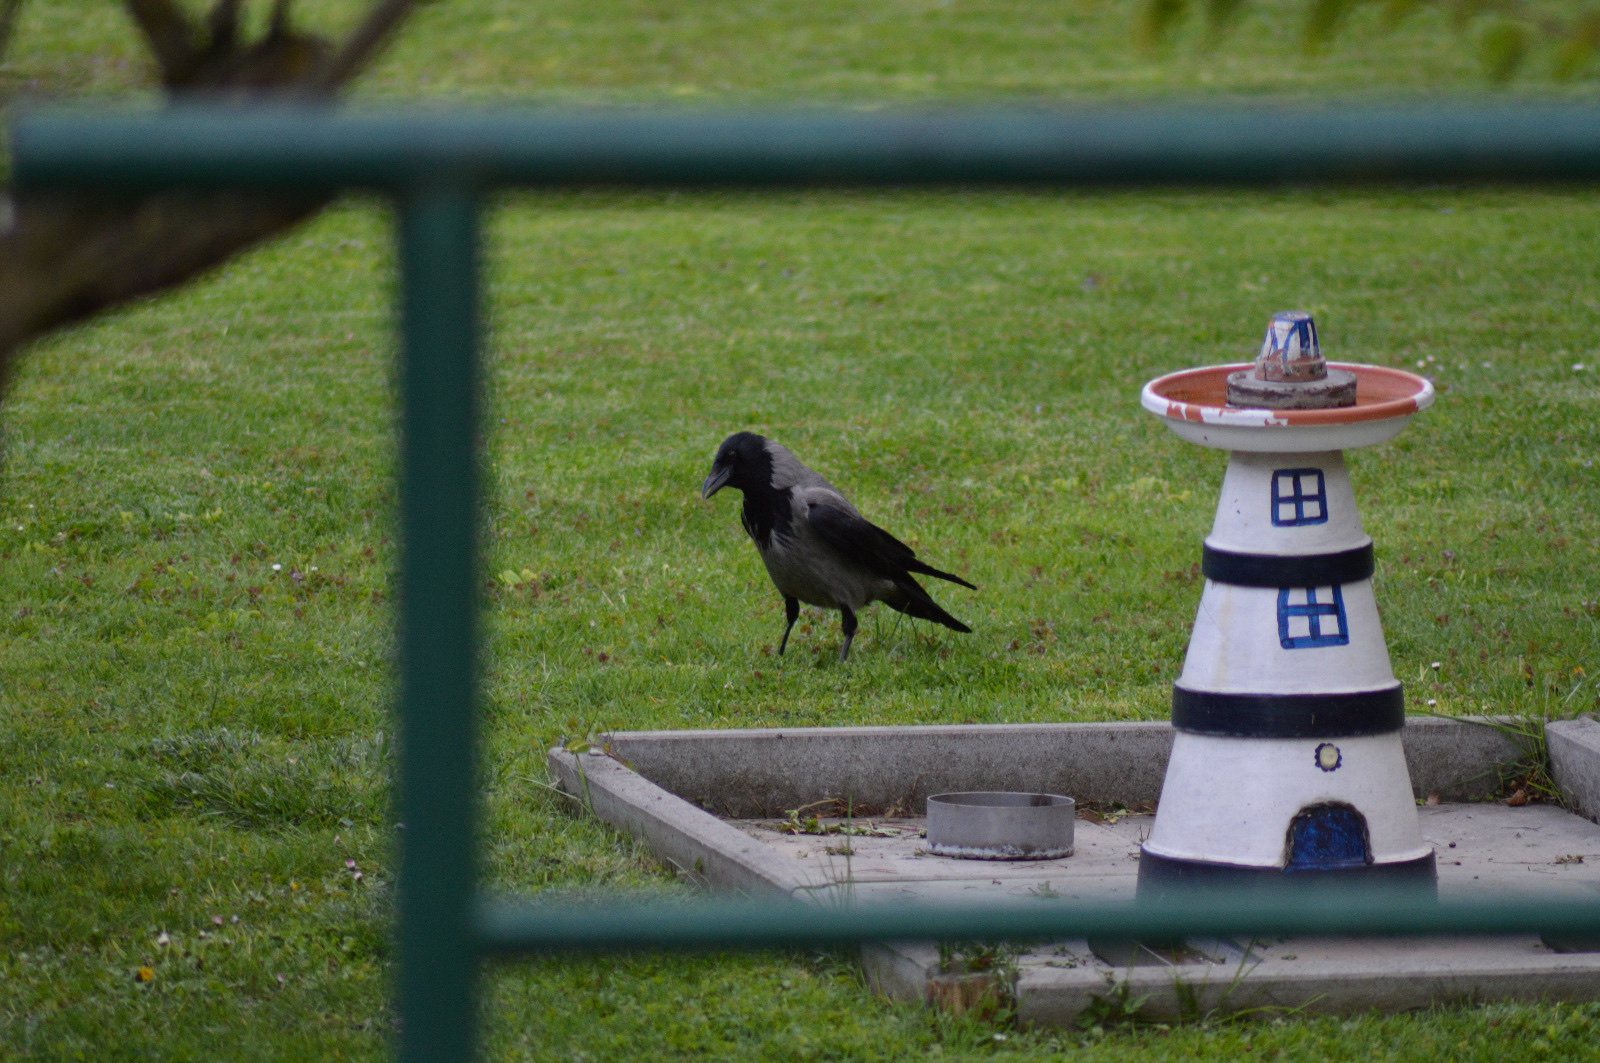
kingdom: Animalia
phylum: Chordata
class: Aves
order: Passeriformes
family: Corvidae
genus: Corvus
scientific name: Corvus cornix
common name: Hooded crow
